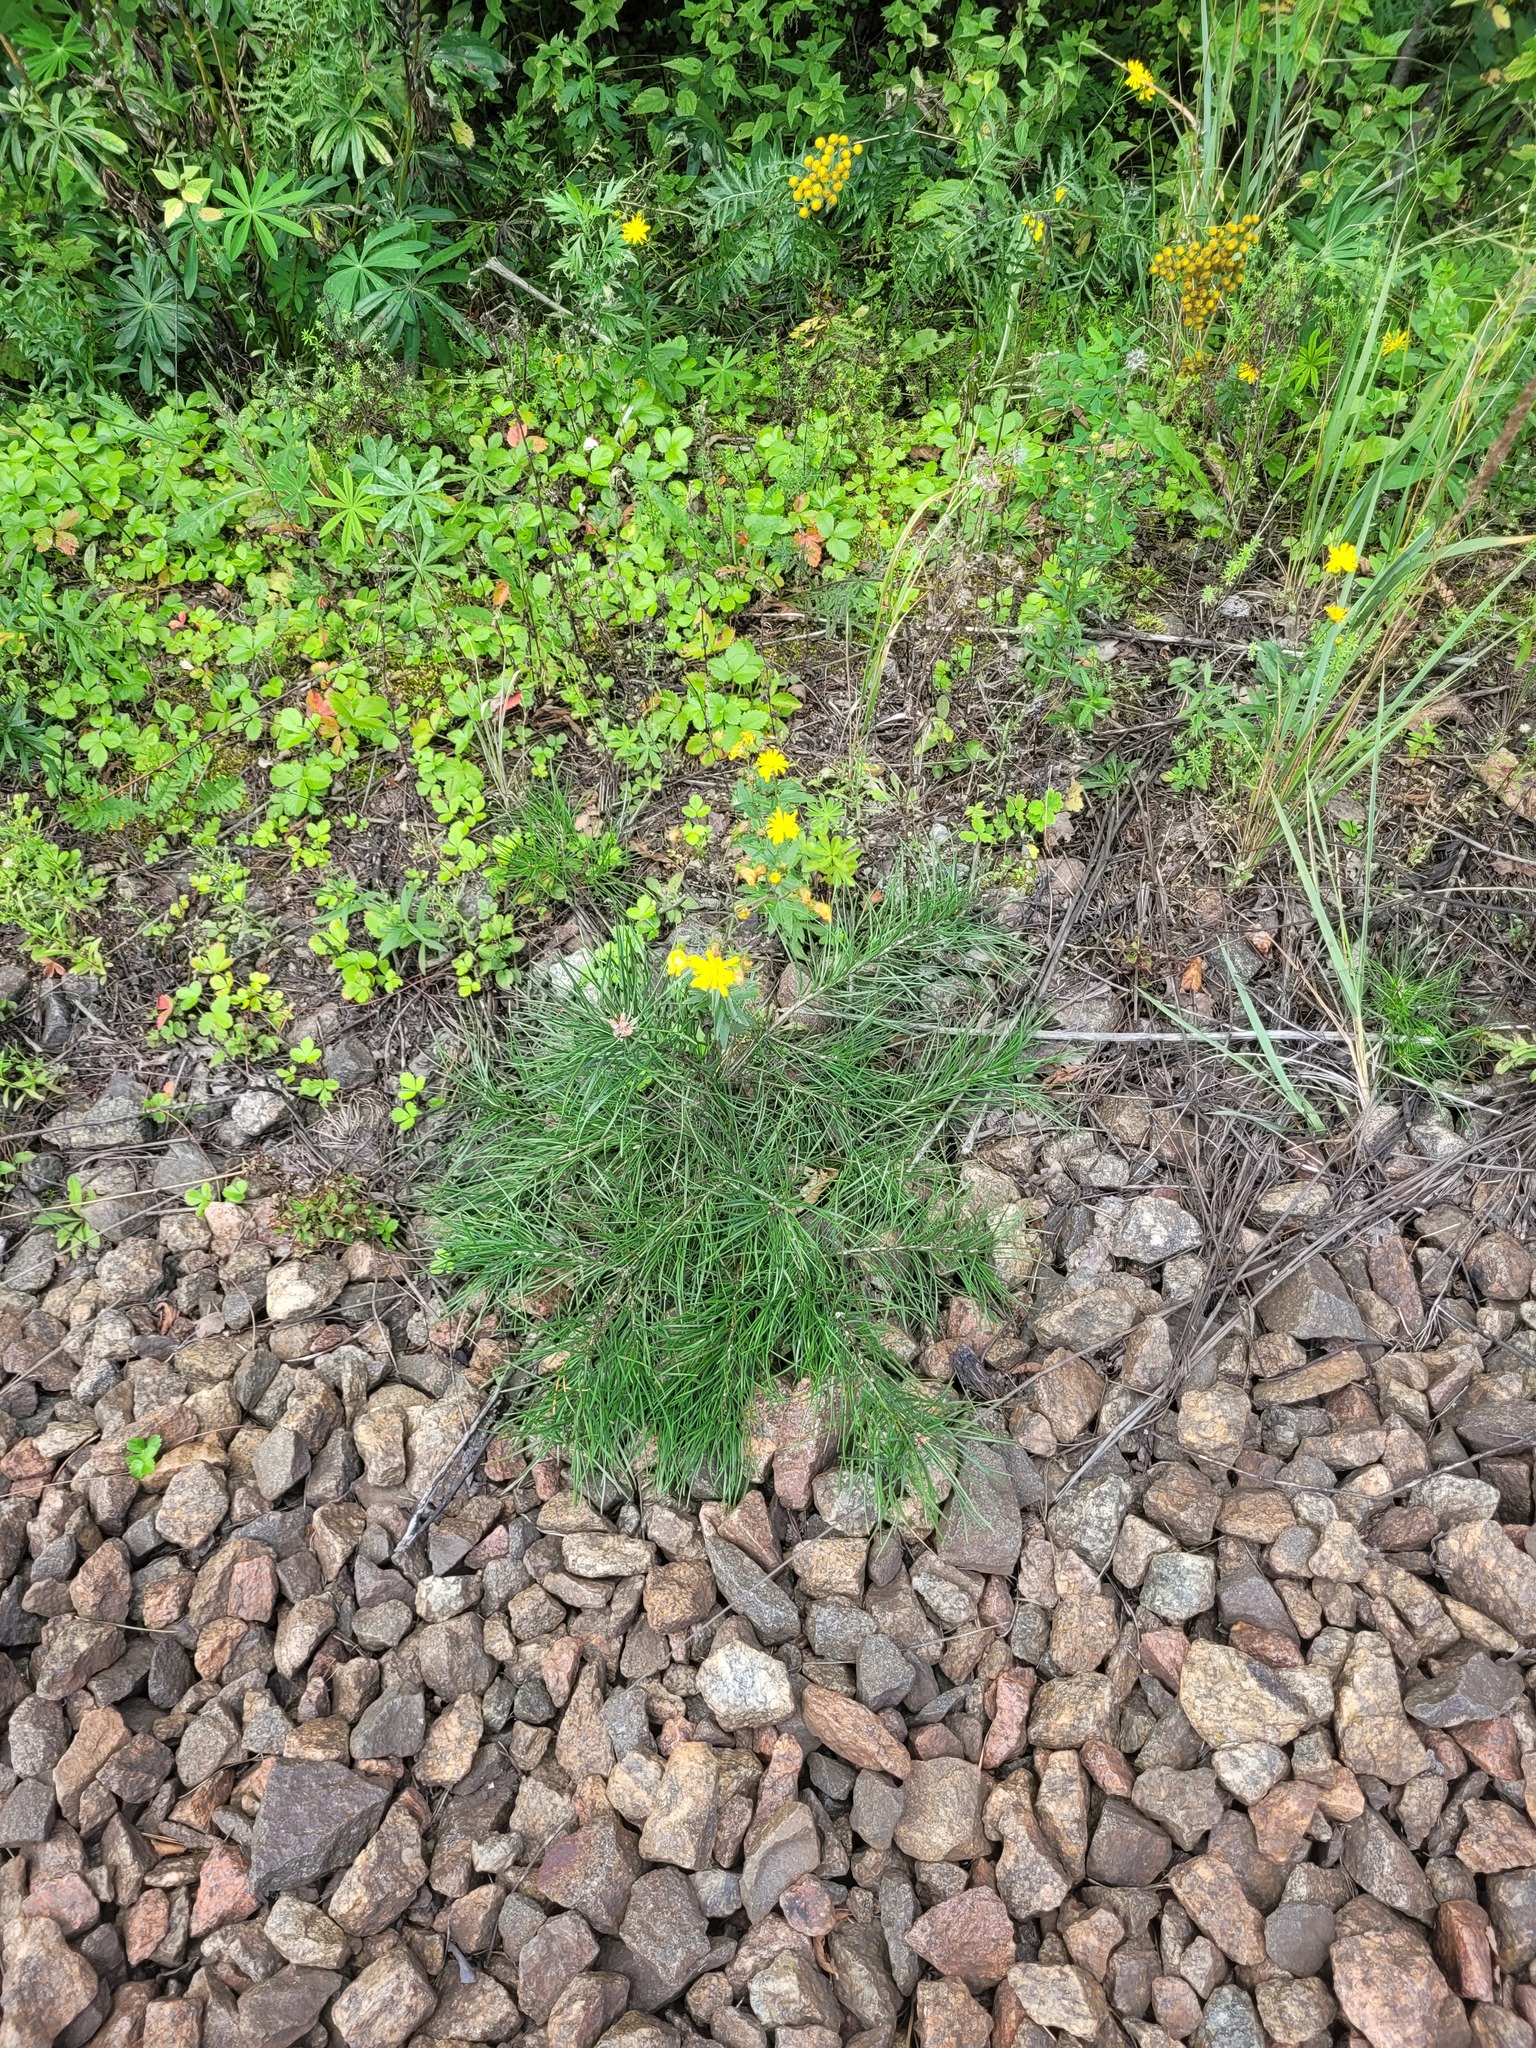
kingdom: Plantae
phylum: Tracheophyta
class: Pinopsida
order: Pinales
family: Pinaceae
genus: Pinus
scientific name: Pinus sylvestris
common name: Scots pine
